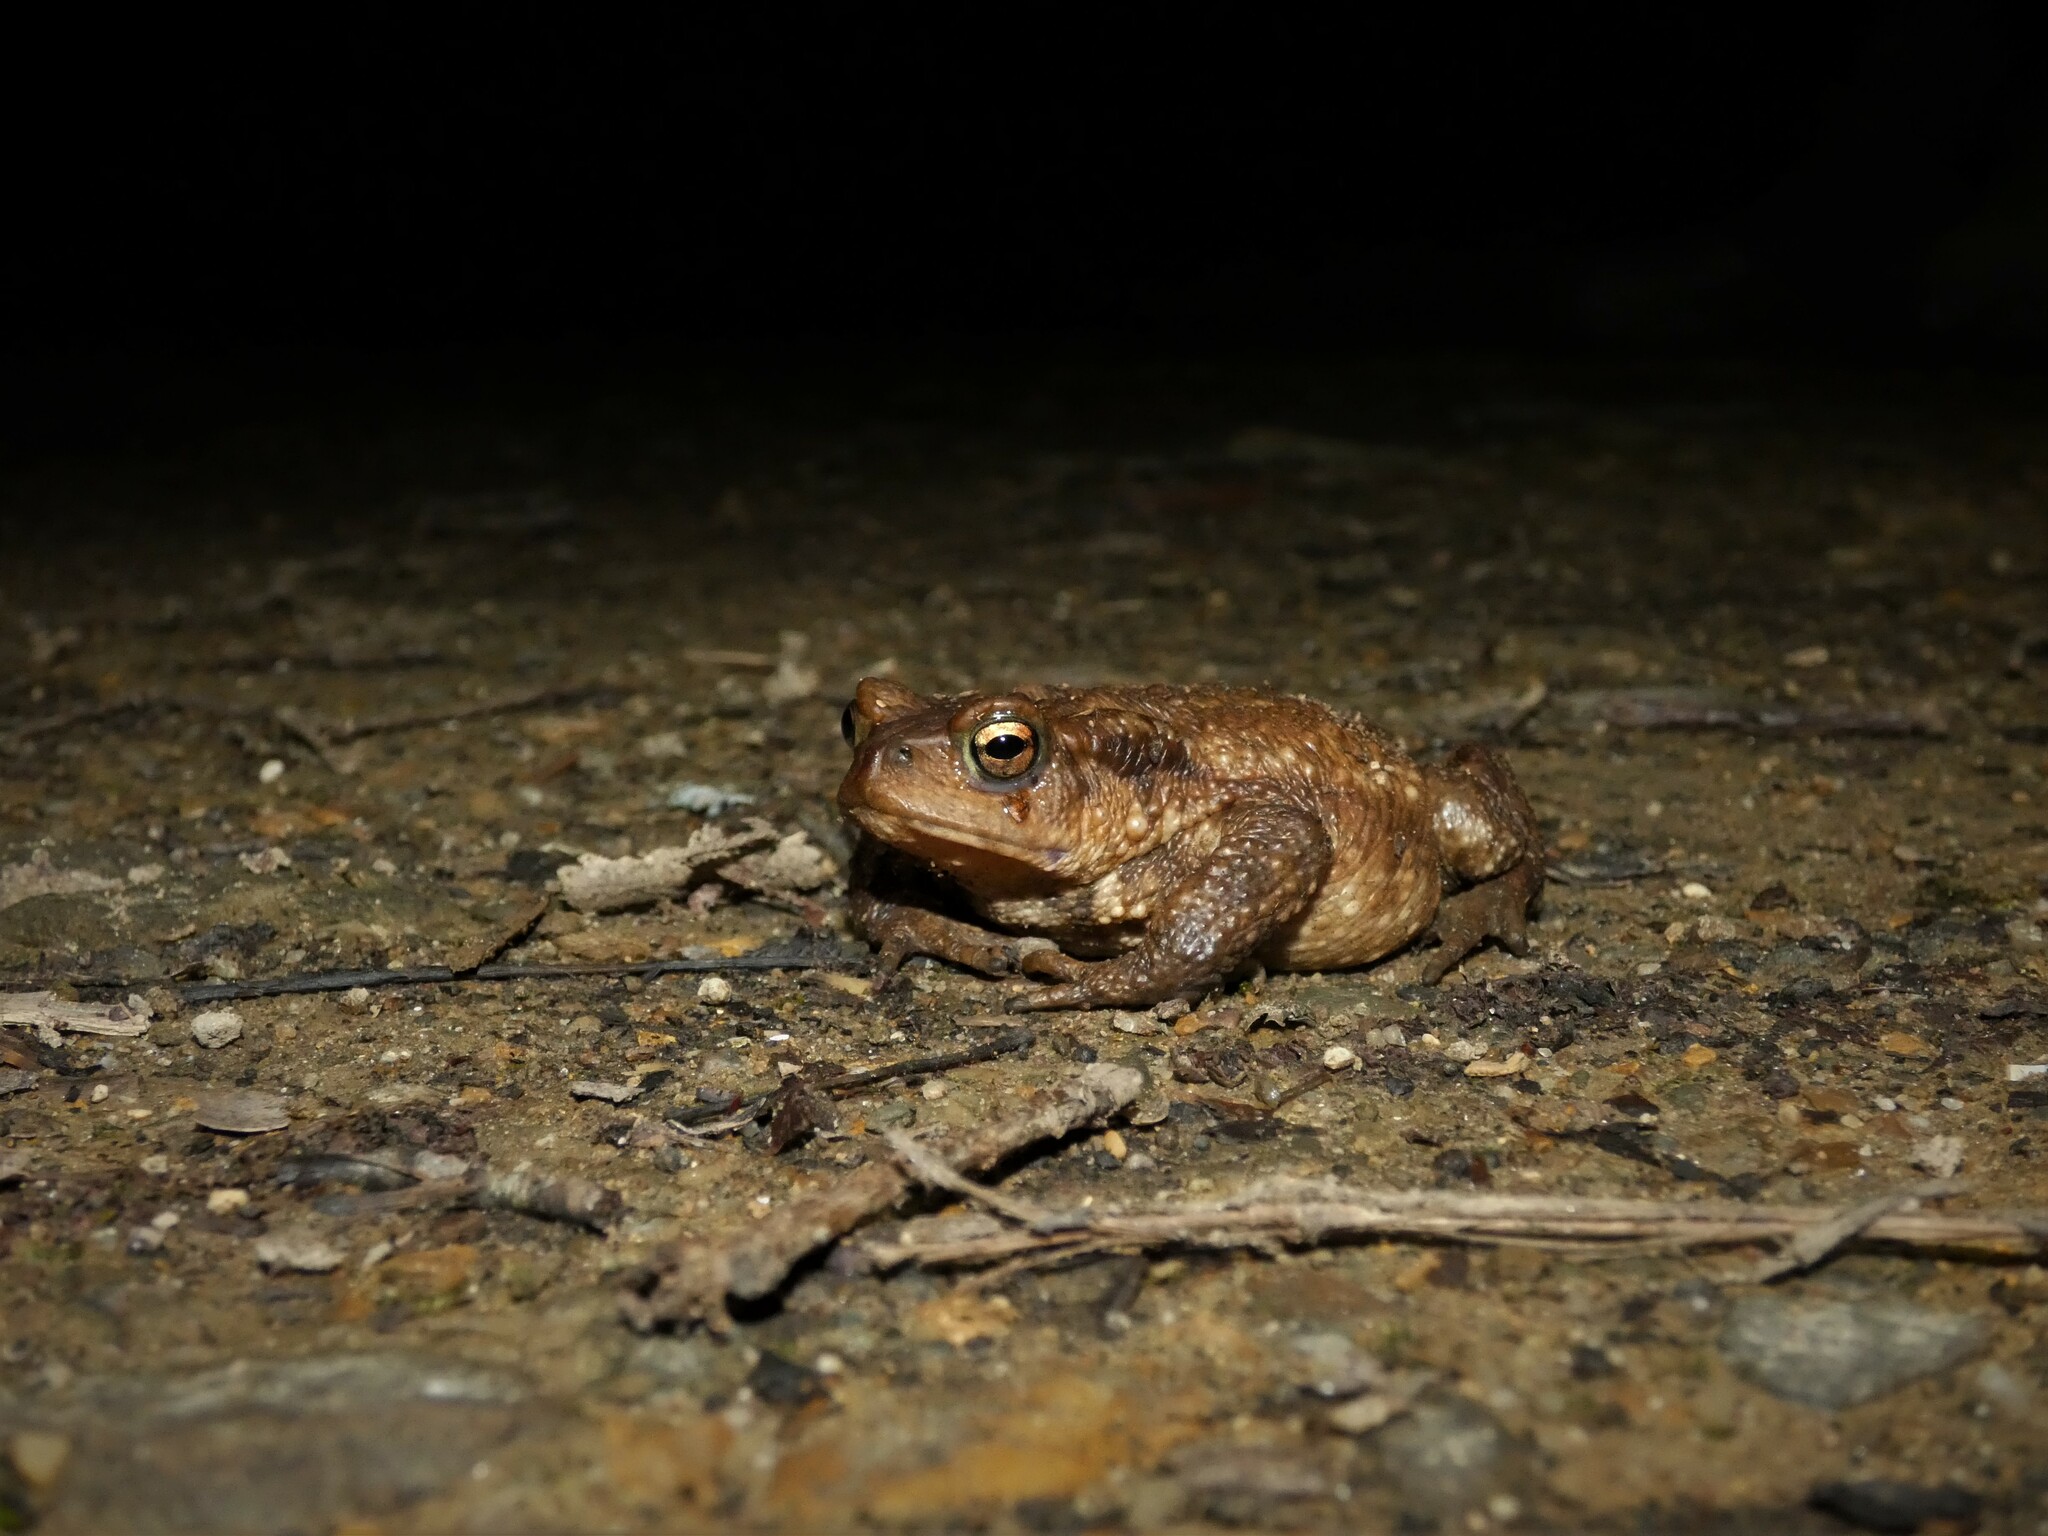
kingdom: Animalia
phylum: Chordata
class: Amphibia
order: Anura
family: Bufonidae
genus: Bufo
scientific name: Bufo bufo
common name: Common toad
